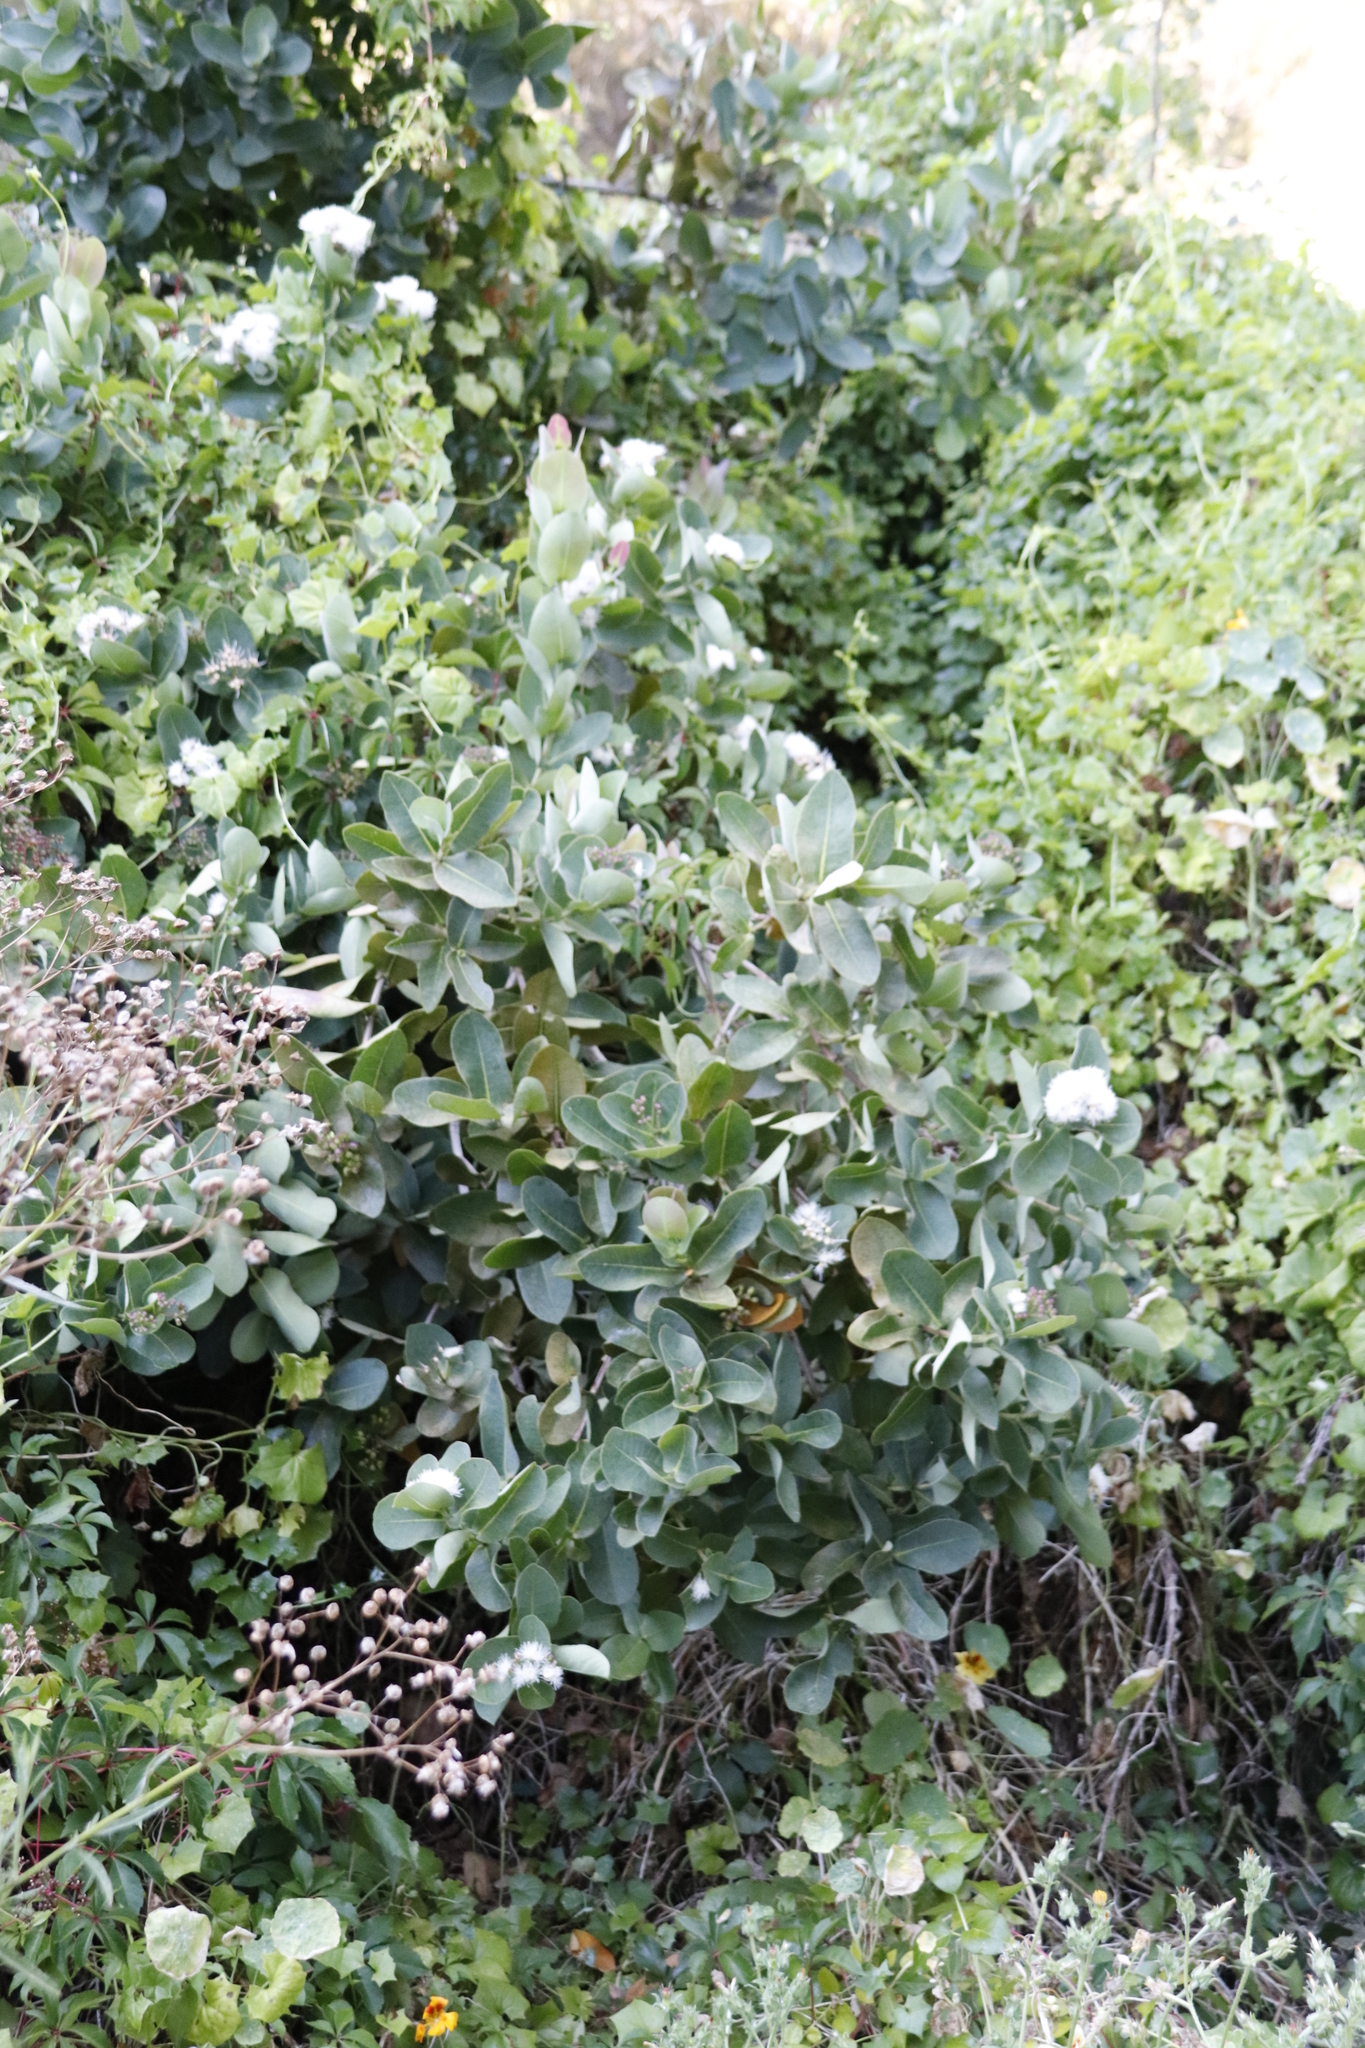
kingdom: Plantae
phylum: Tracheophyta
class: Magnoliopsida
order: Myrtales
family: Myrtaceae
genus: Syzygium
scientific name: Syzygium cordatum
